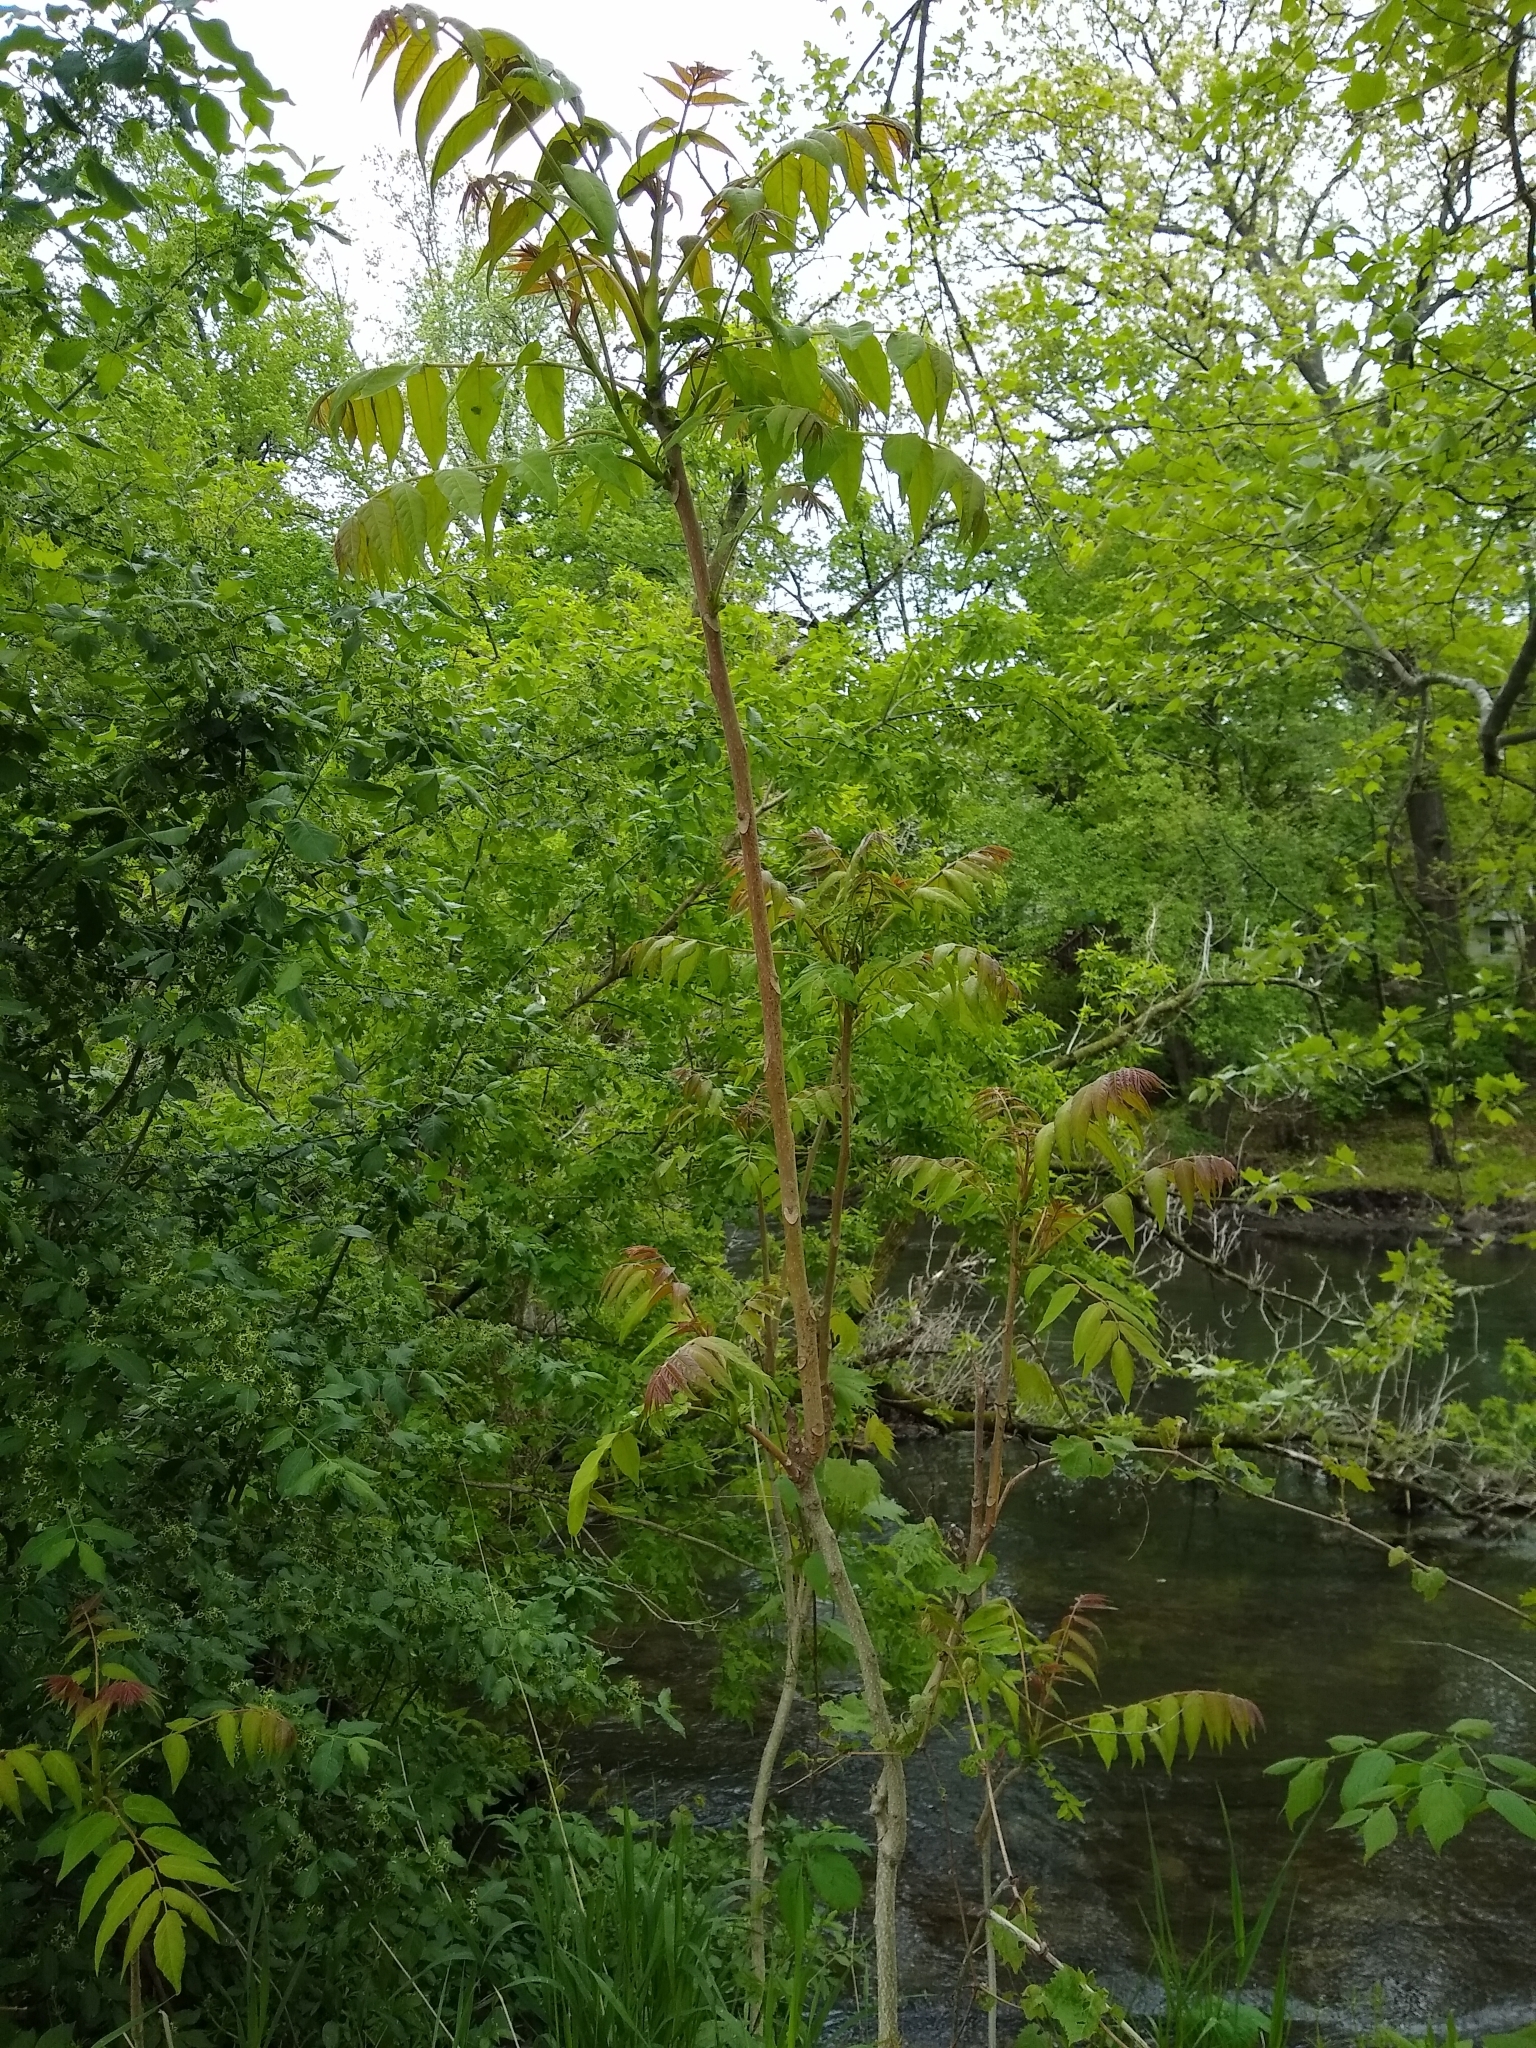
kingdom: Plantae
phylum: Tracheophyta
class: Magnoliopsida
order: Sapindales
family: Simaroubaceae
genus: Ailanthus
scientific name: Ailanthus altissima
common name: Tree-of-heaven
